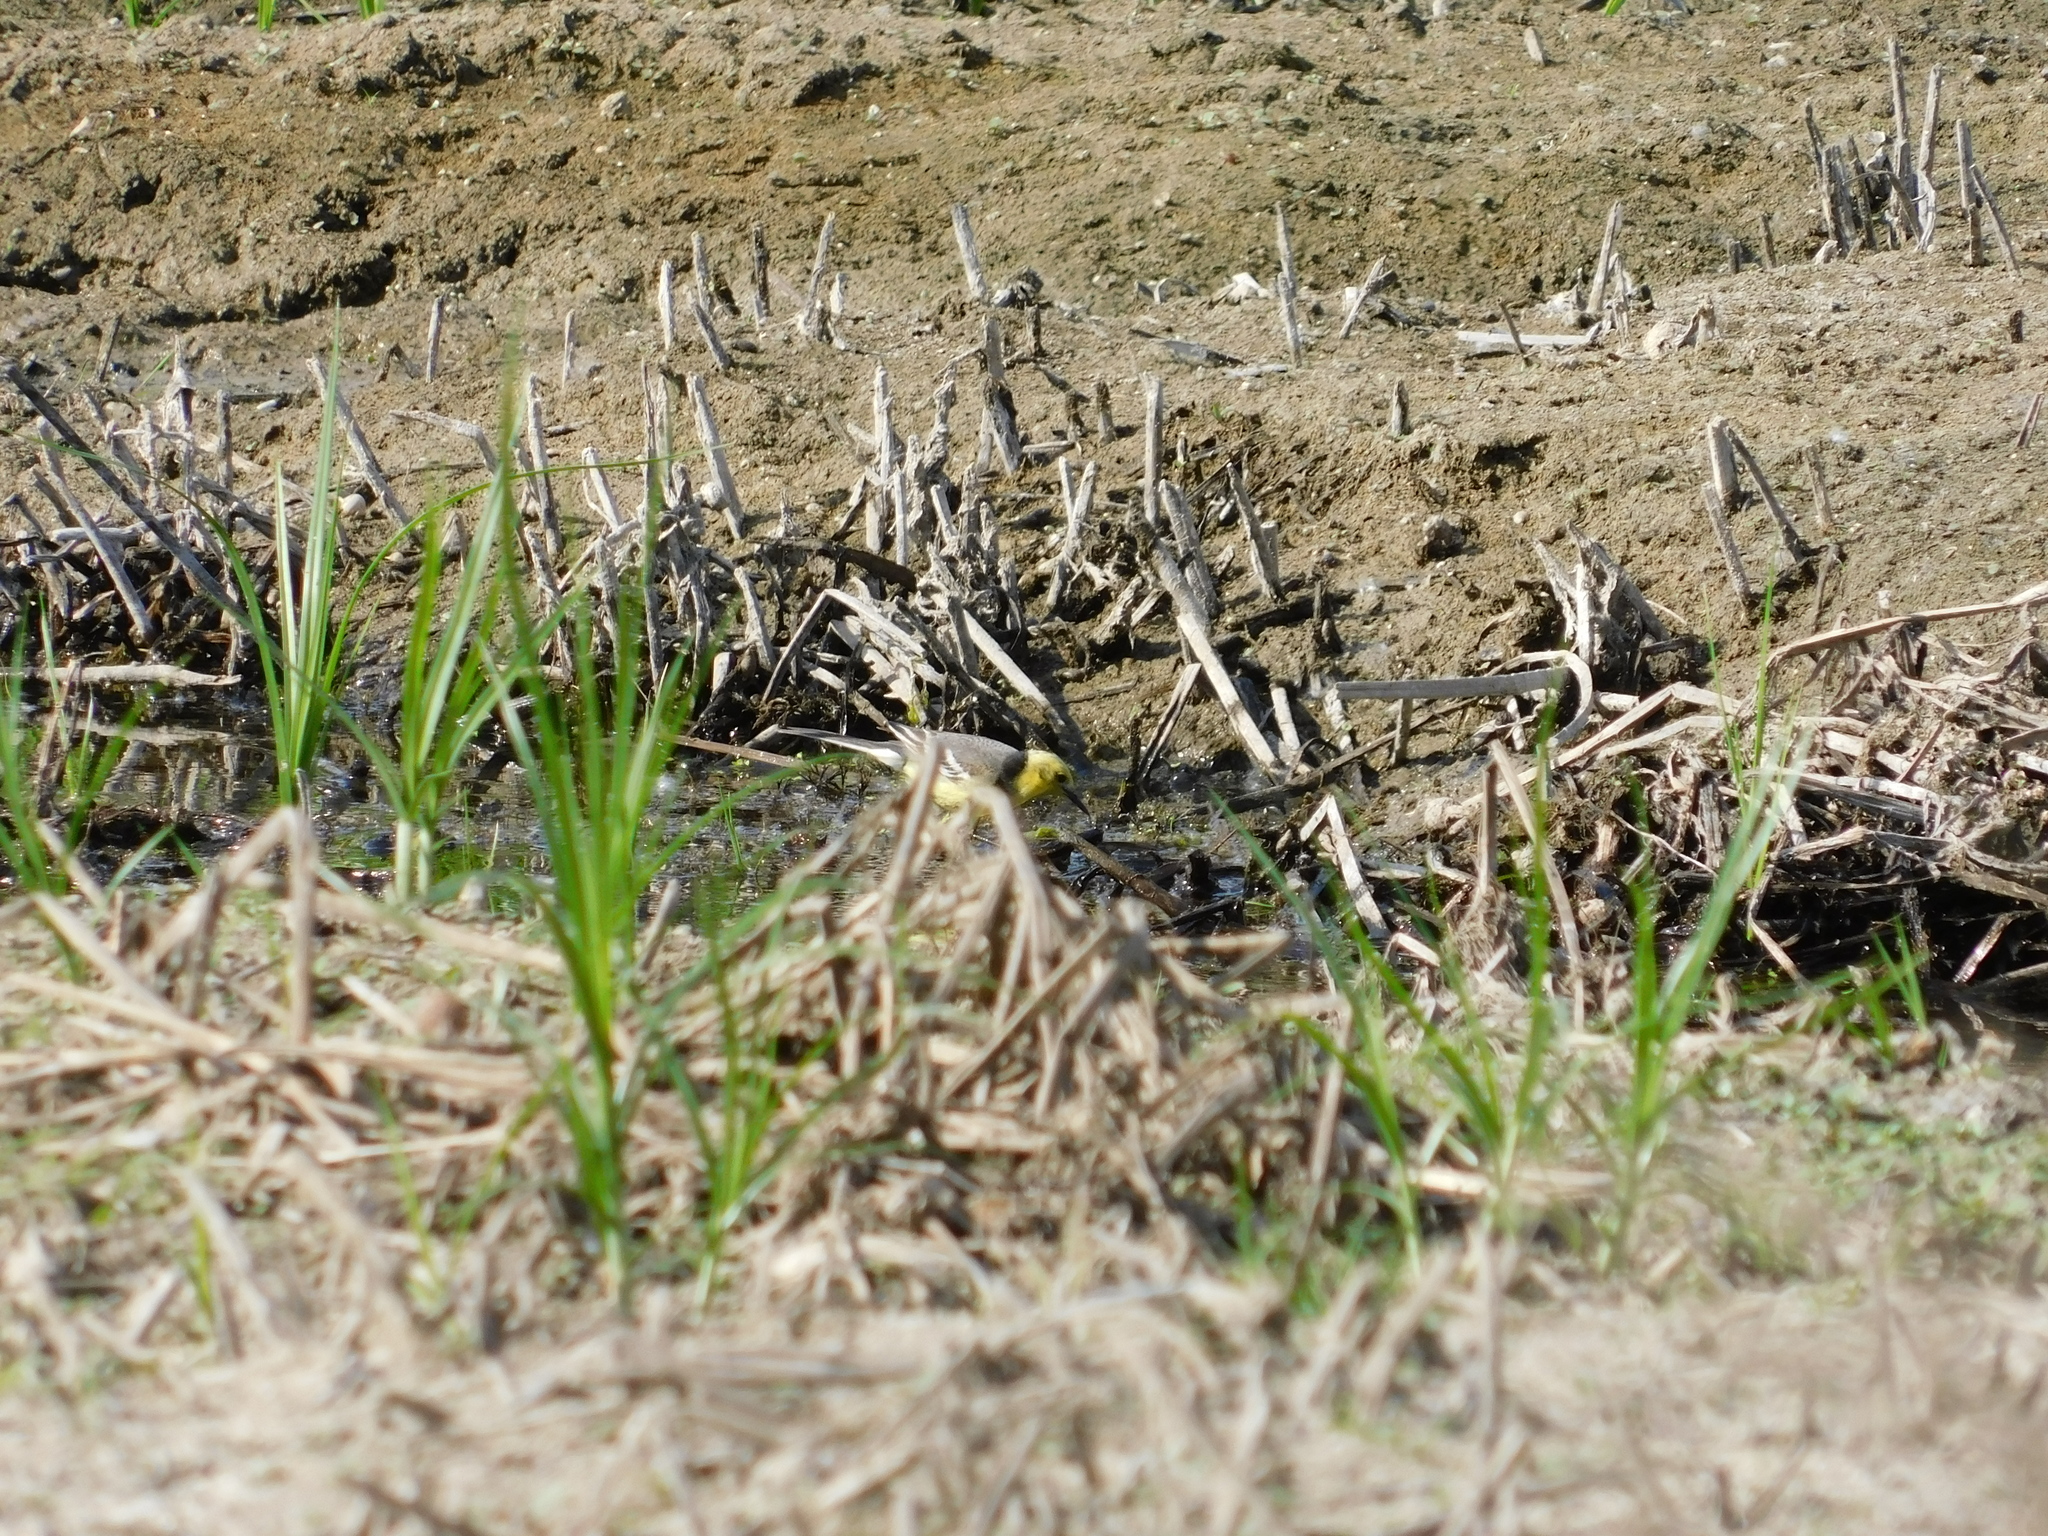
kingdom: Animalia
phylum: Chordata
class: Aves
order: Passeriformes
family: Motacillidae
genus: Motacilla
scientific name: Motacilla citreola
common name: Citrine wagtail
